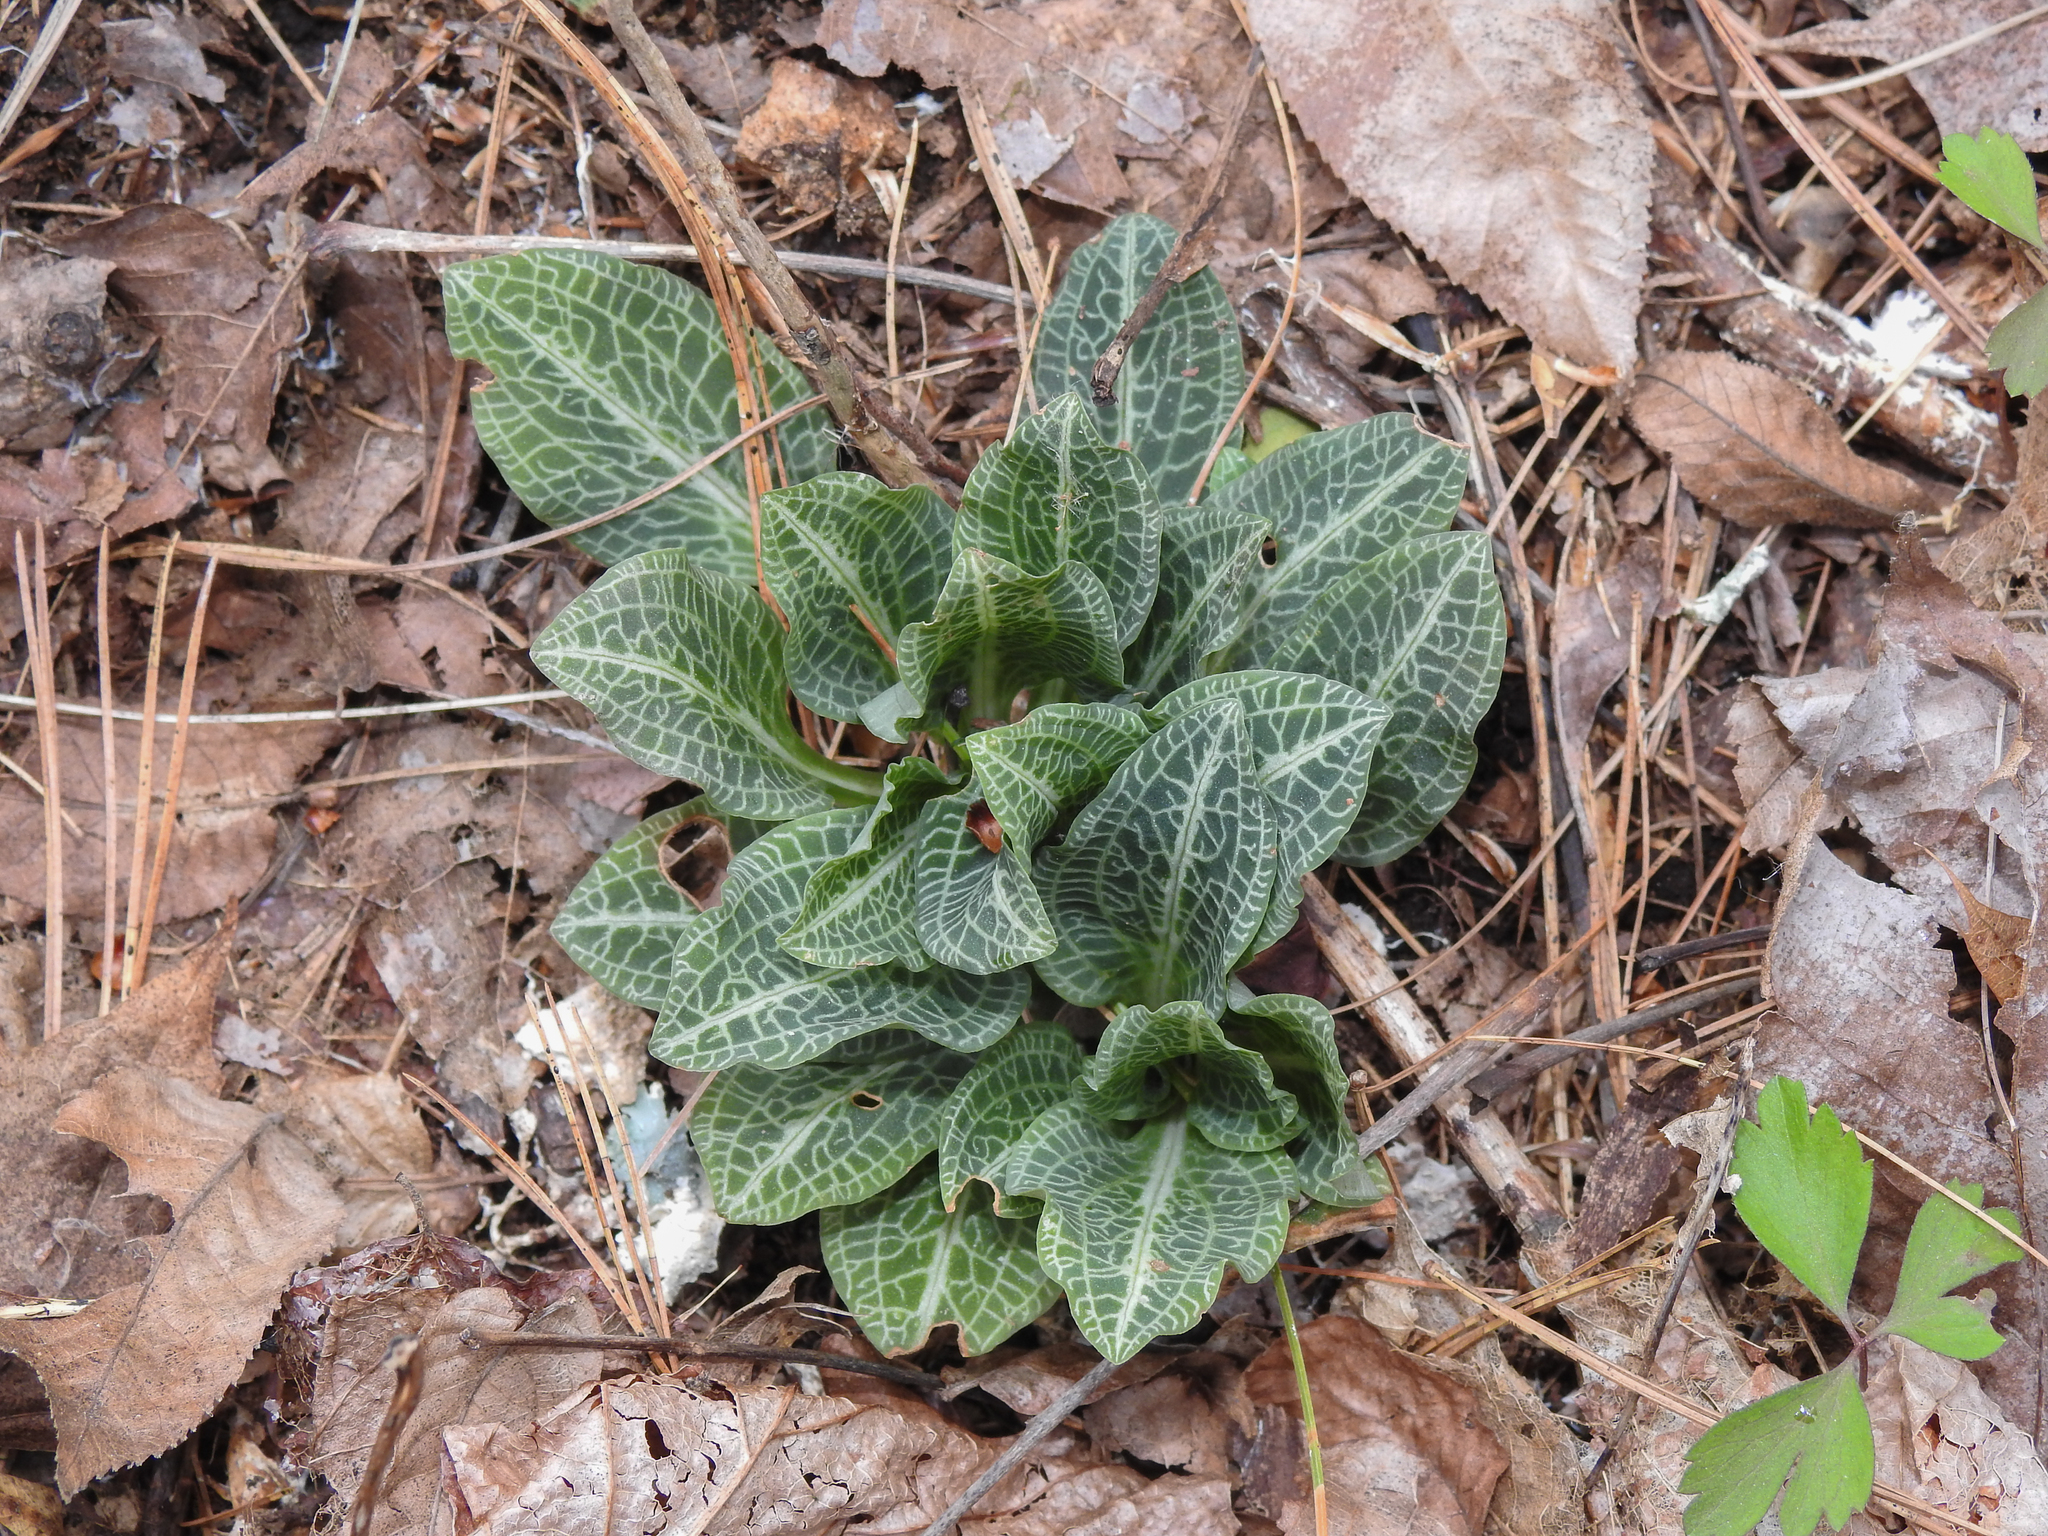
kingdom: Plantae
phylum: Tracheophyta
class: Liliopsida
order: Asparagales
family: Orchidaceae
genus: Goodyera
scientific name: Goodyera pubescens
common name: Downy rattlesnake-plantain
